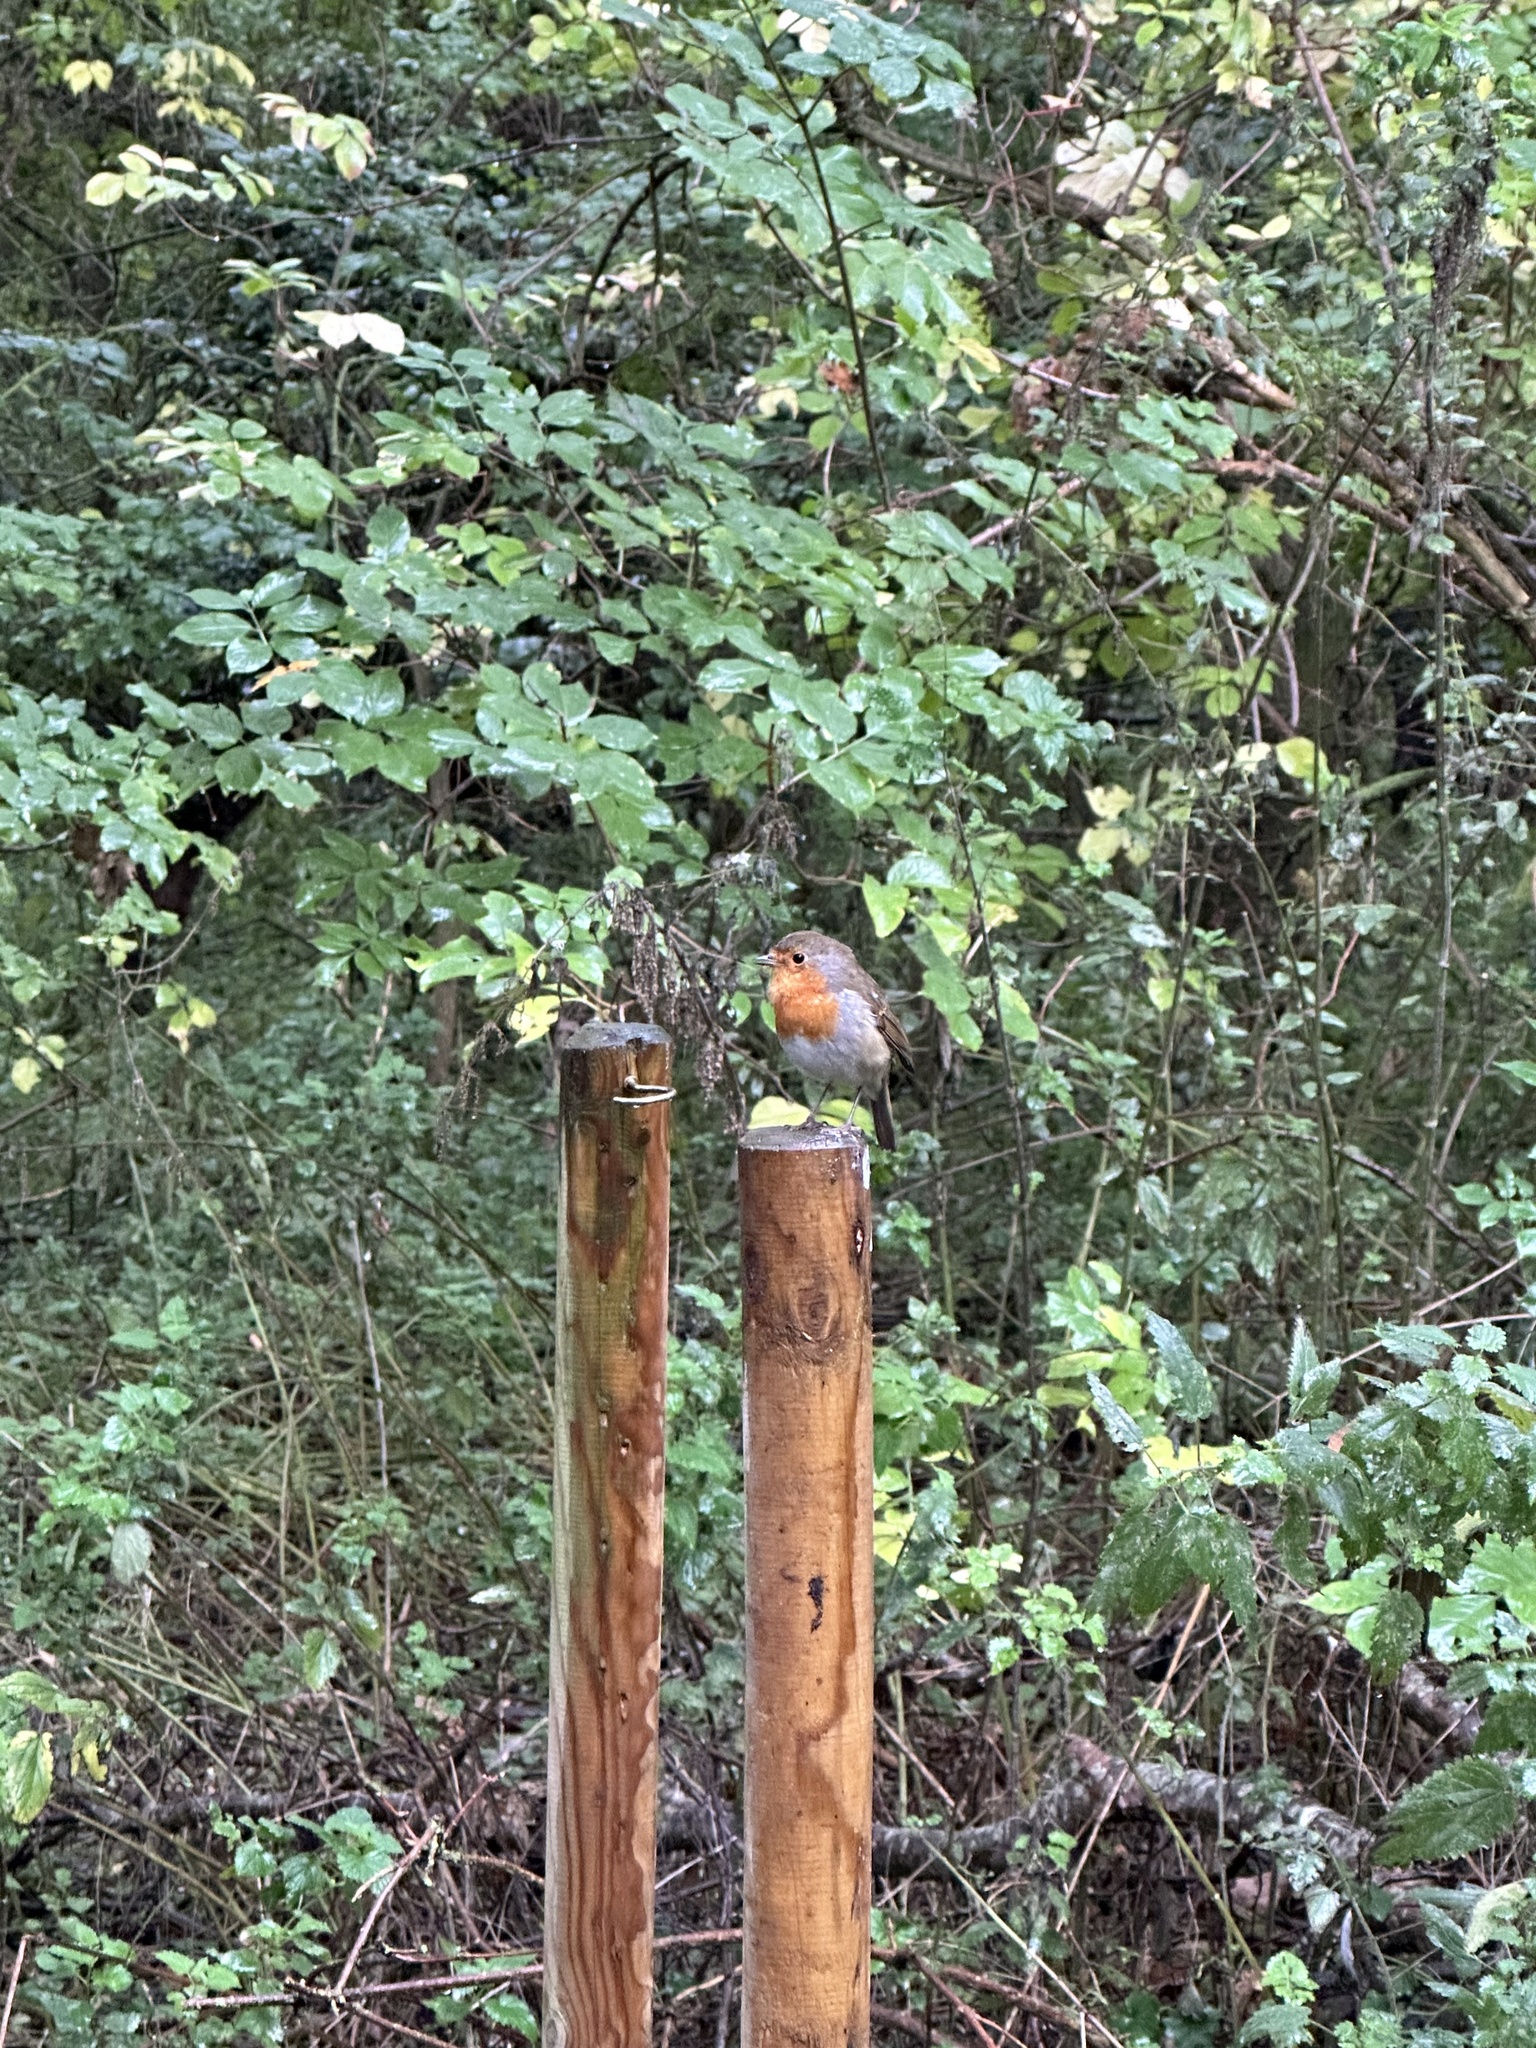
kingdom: Animalia
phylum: Chordata
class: Aves
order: Passeriformes
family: Muscicapidae
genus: Erithacus
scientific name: Erithacus rubecula
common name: European robin
